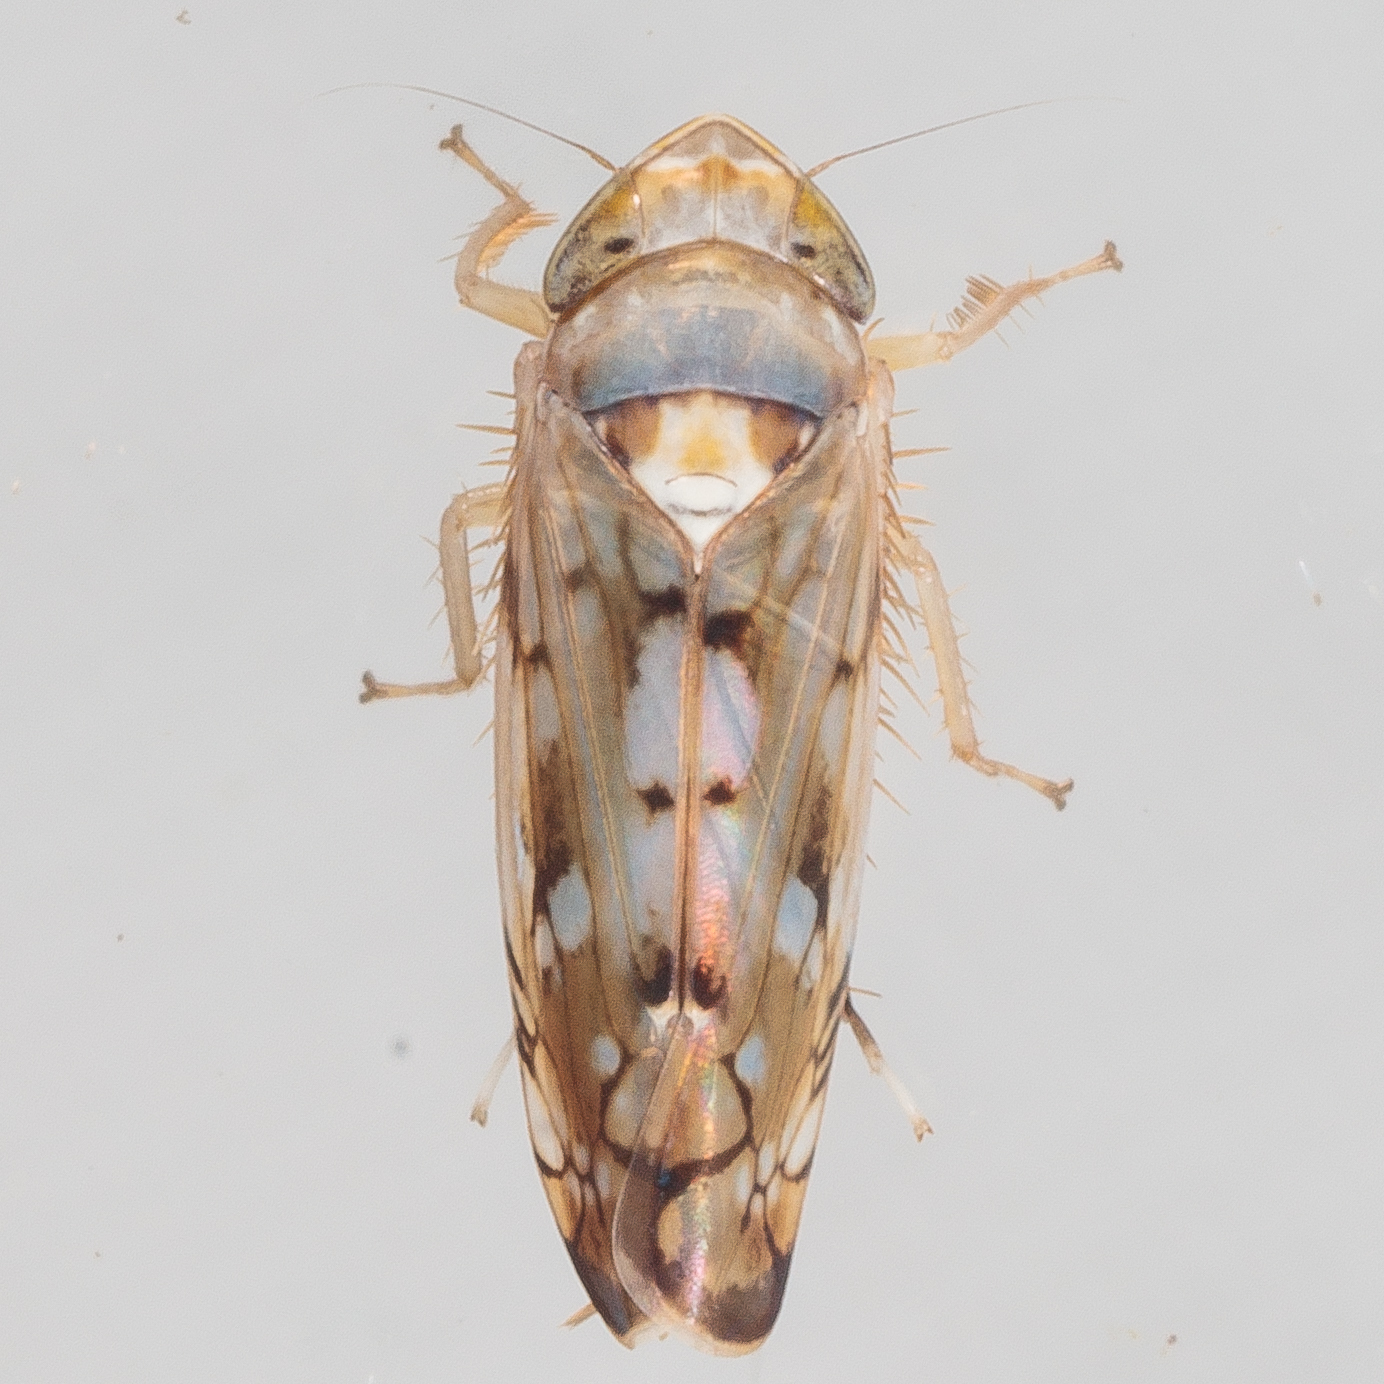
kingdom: Animalia
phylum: Arthropoda
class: Insecta
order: Hemiptera
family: Cicadellidae
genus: Scaphoideus
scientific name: Scaphoideus opalinus
